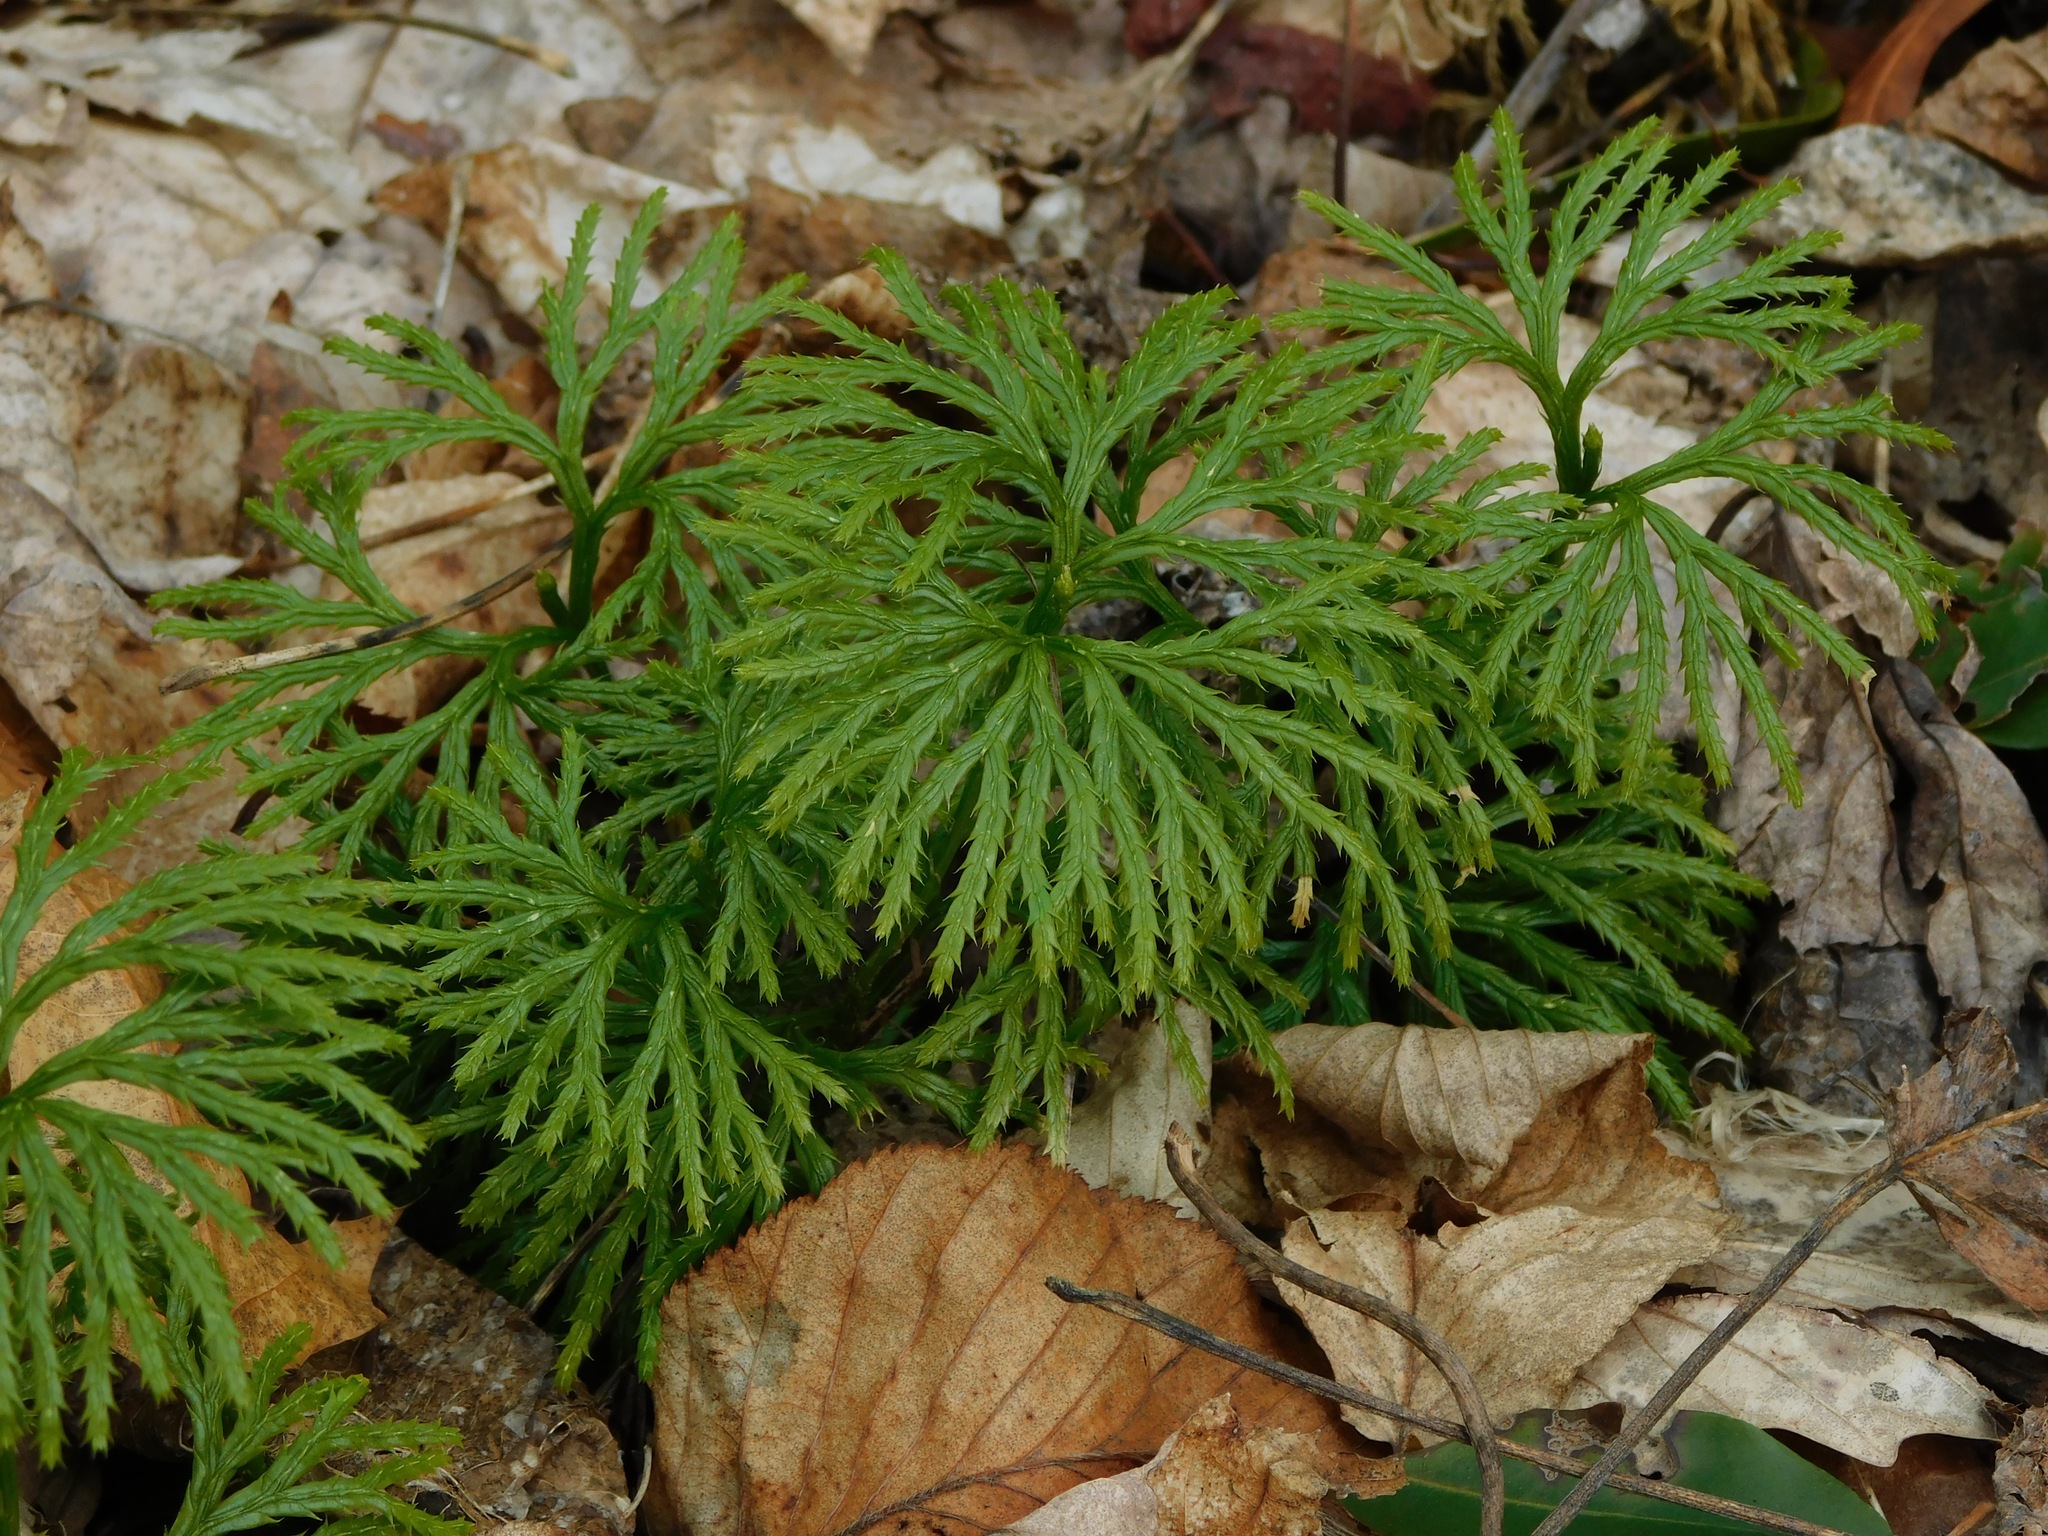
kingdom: Plantae
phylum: Tracheophyta
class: Lycopodiopsida
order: Lycopodiales
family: Lycopodiaceae
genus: Diphasiastrum
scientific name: Diphasiastrum digitatum
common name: Southern running-pine
